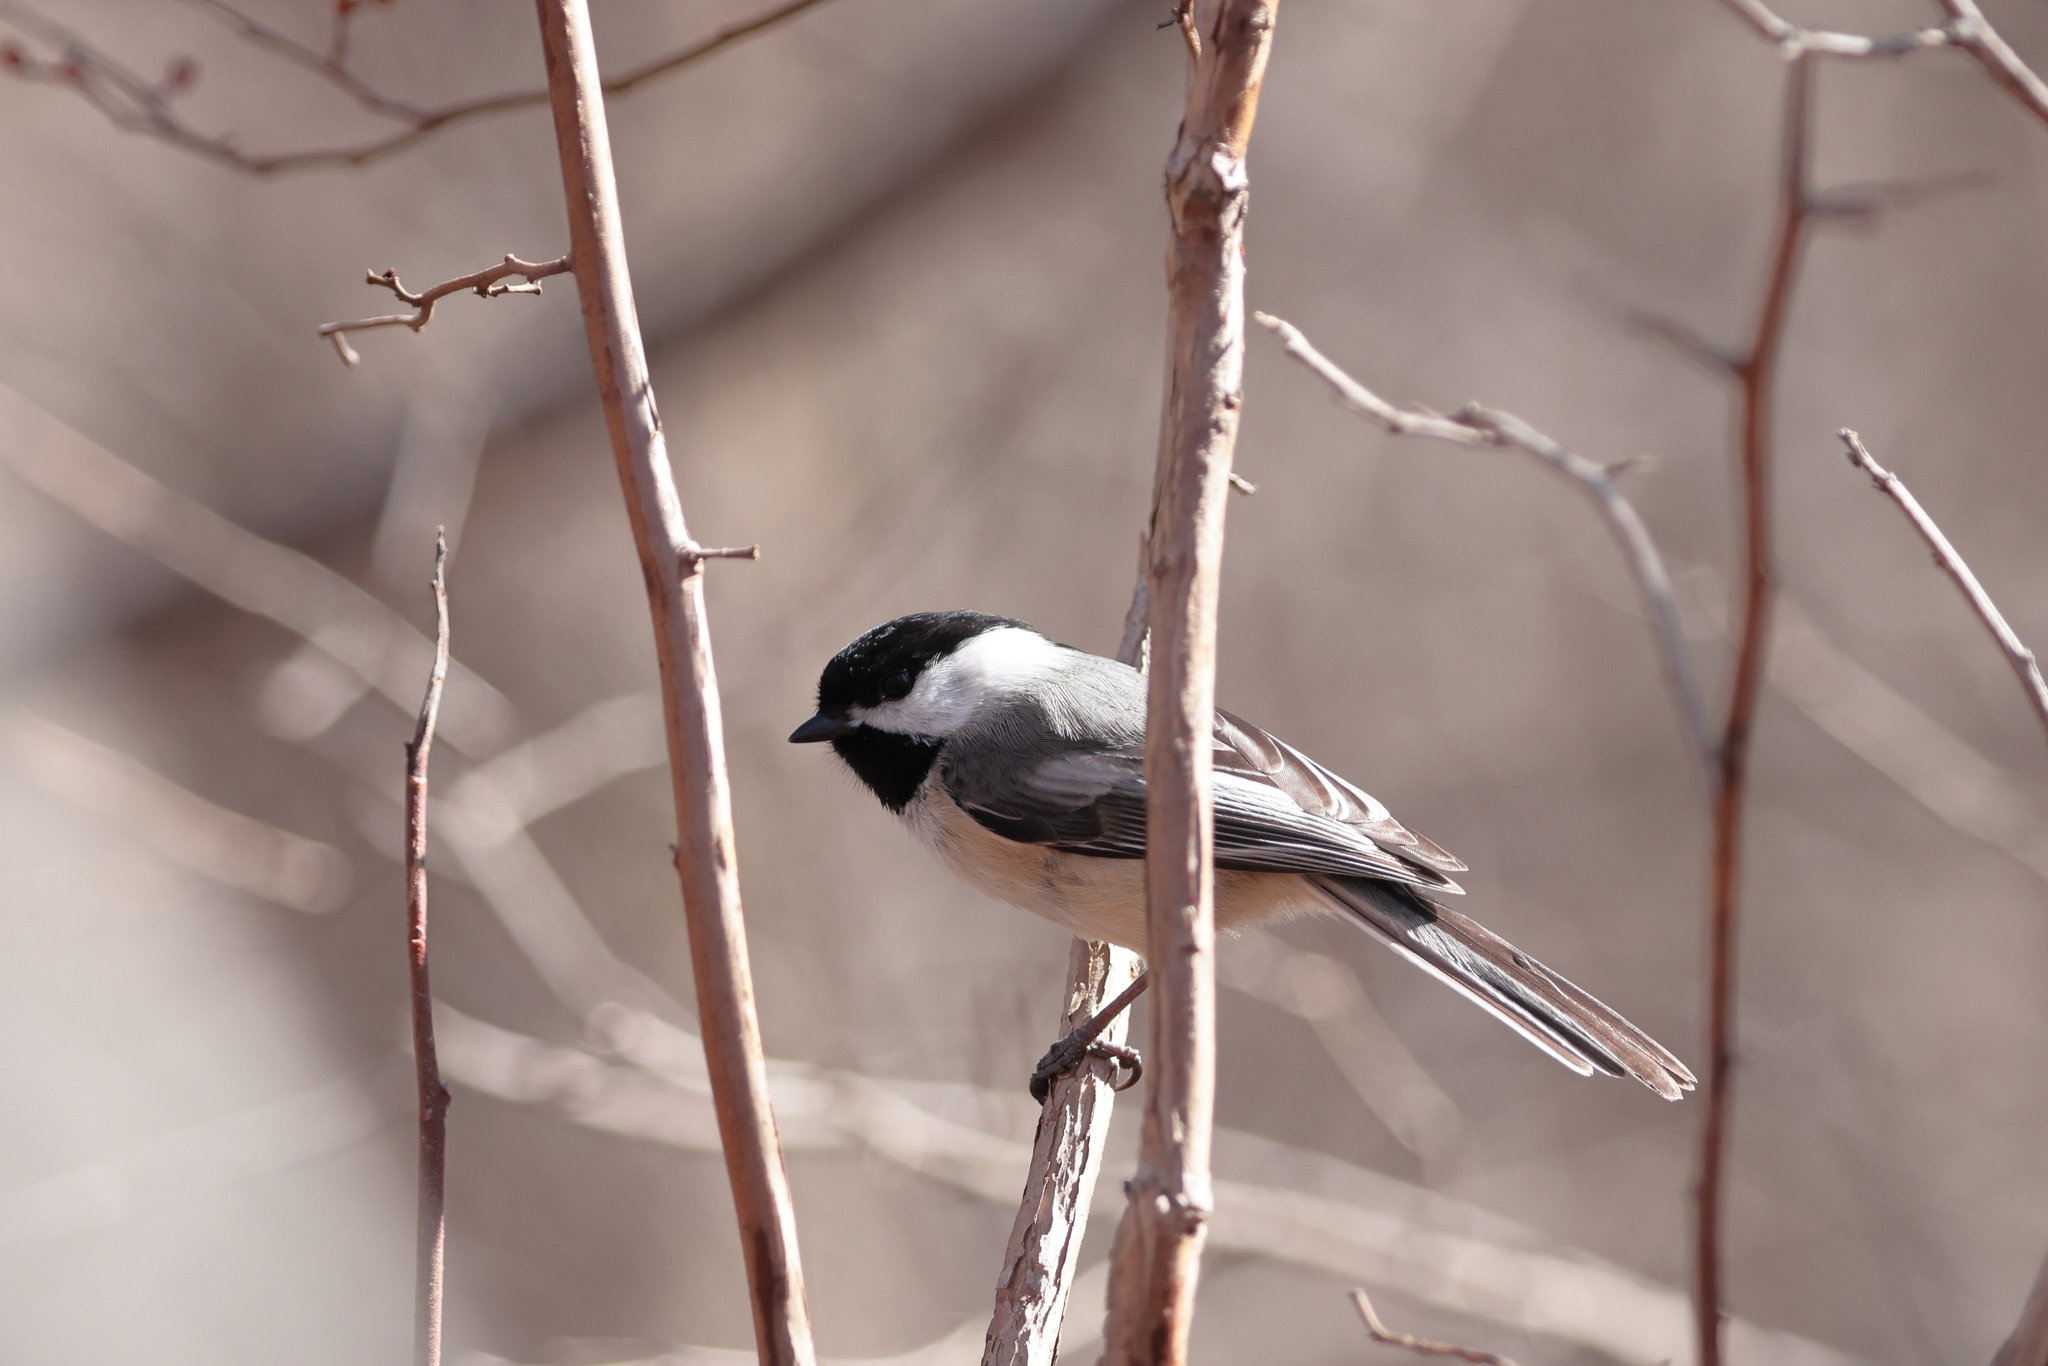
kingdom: Animalia
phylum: Chordata
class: Aves
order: Passeriformes
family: Paridae
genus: Poecile
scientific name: Poecile atricapillus
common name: Black-capped chickadee
